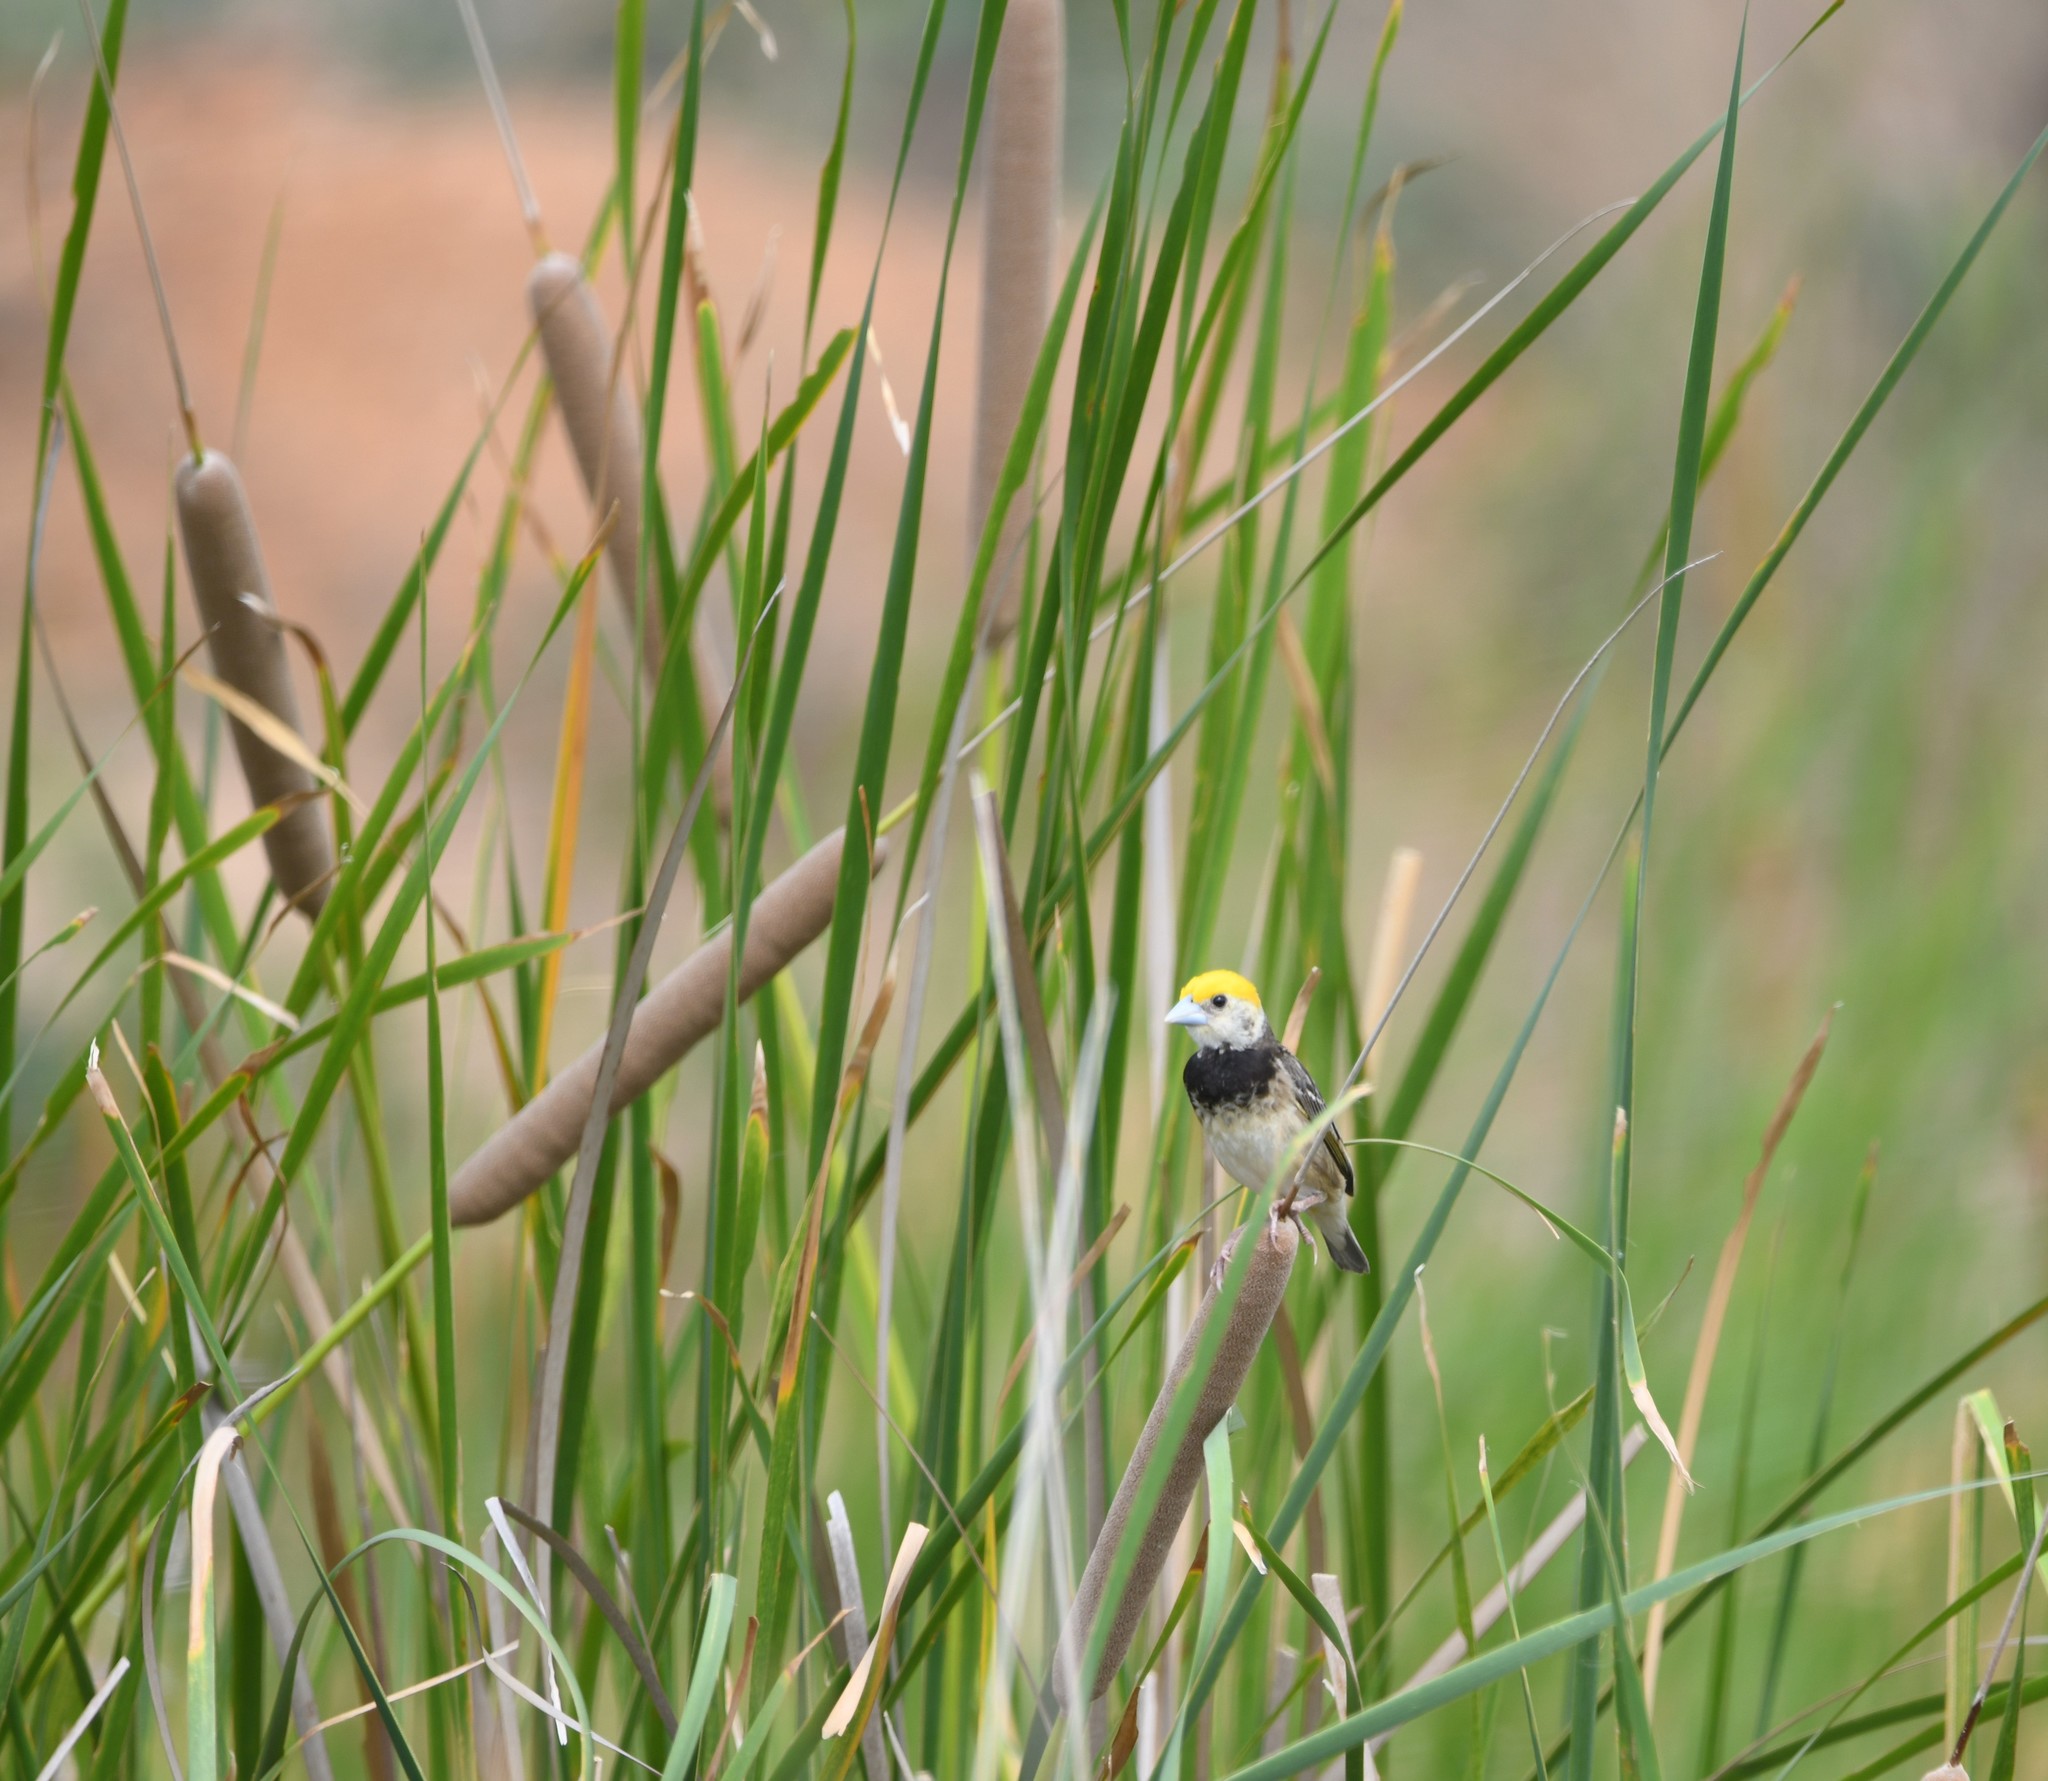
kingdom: Animalia
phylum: Chordata
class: Aves
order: Passeriformes
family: Ploceidae
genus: Ploceus
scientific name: Ploceus benghalensis
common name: Black-breasted weaver
